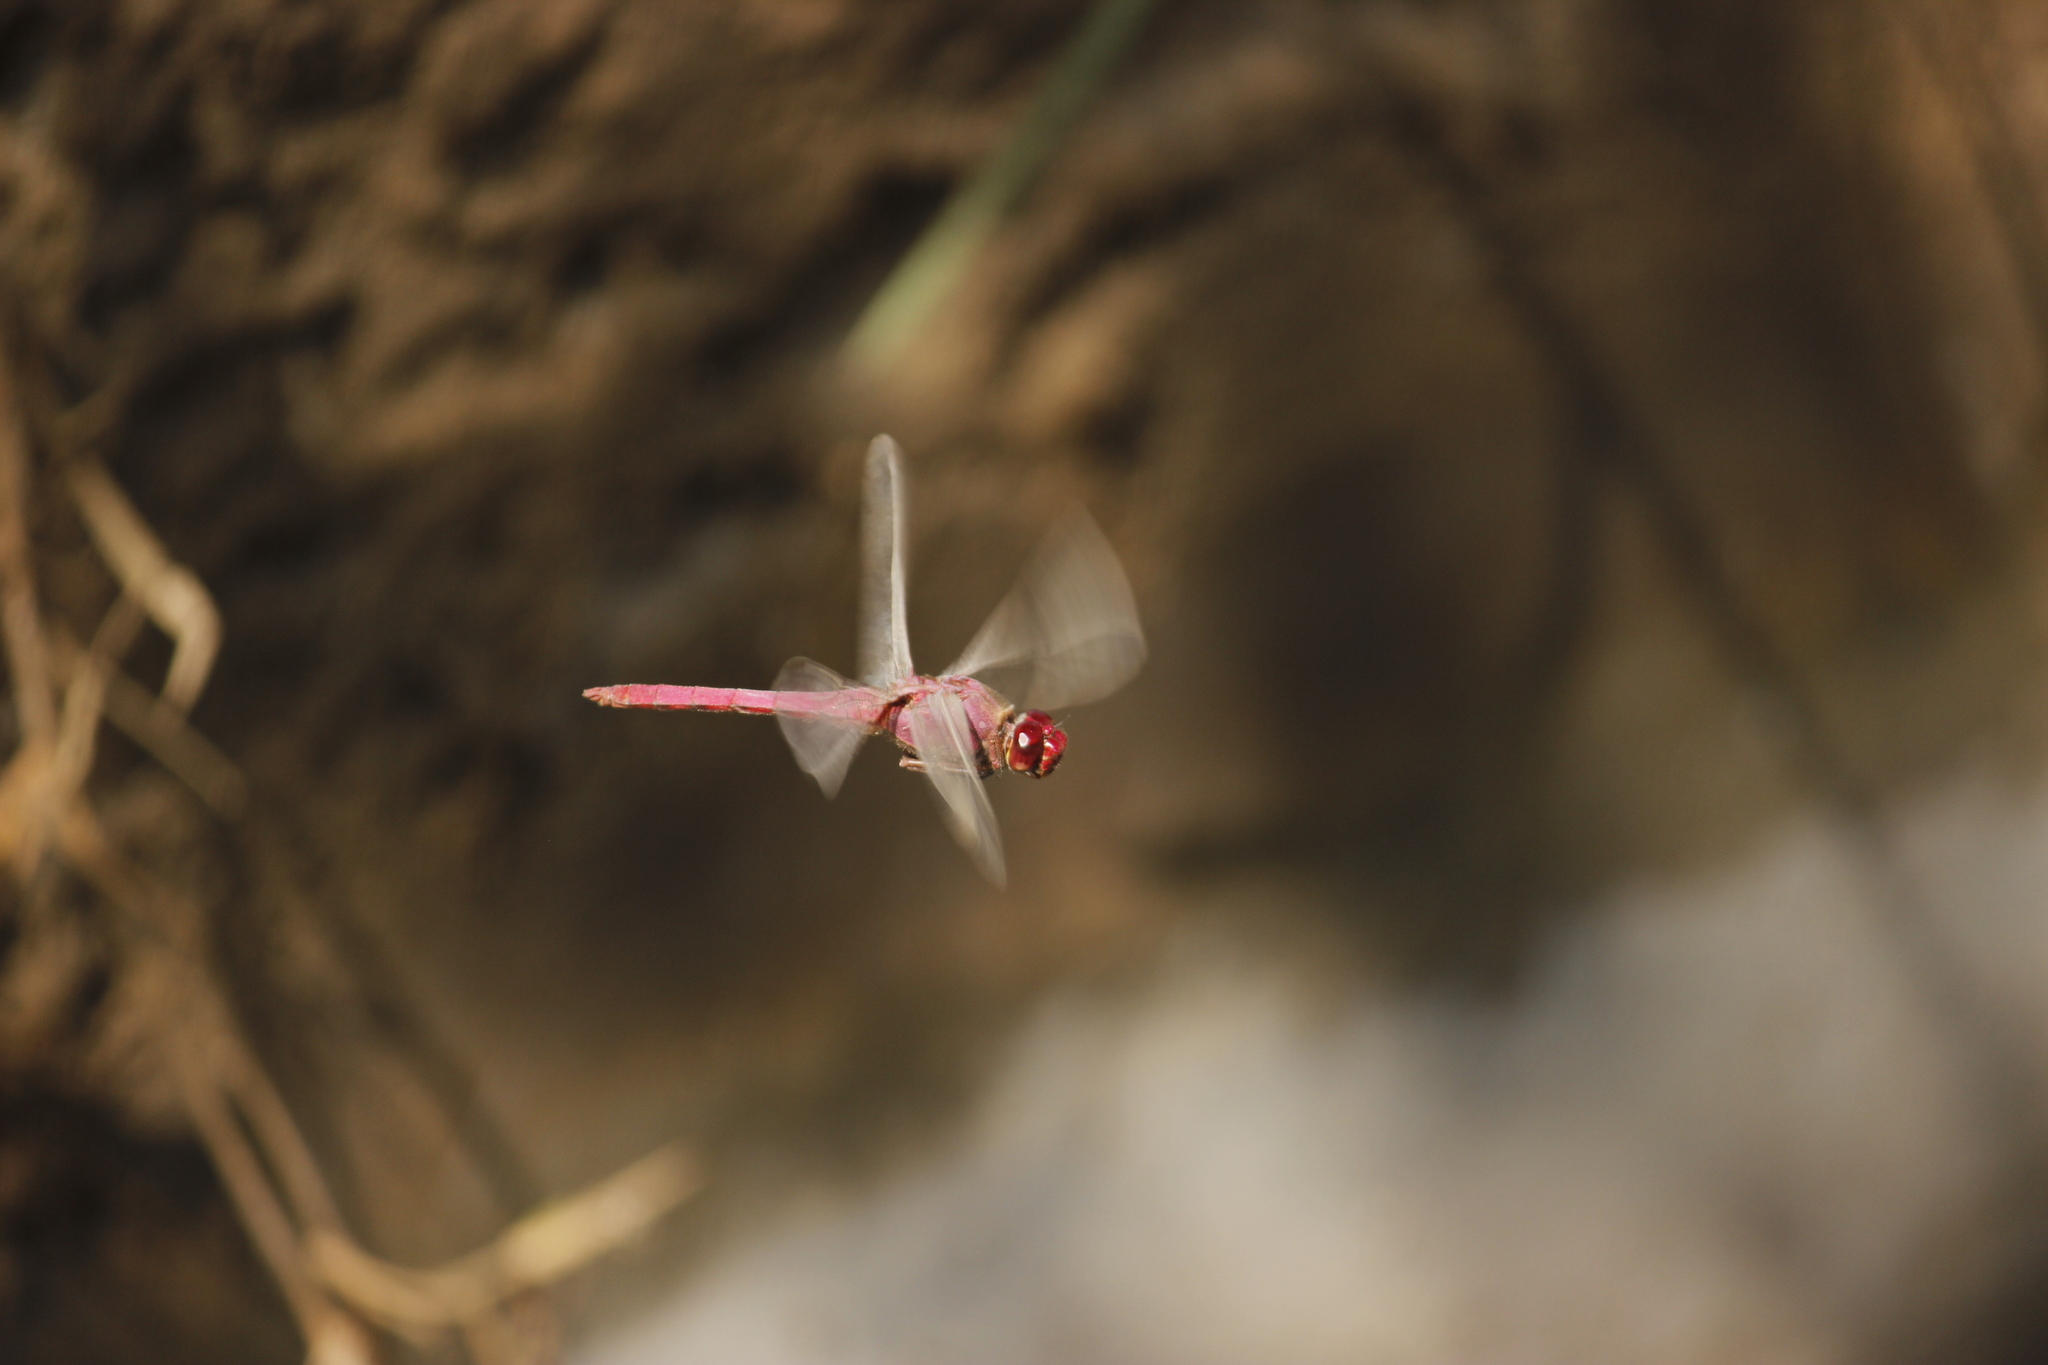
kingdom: Animalia
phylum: Arthropoda
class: Insecta
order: Odonata
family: Libellulidae
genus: Orthemis
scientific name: Orthemis discolor
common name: Carmine skimmer
